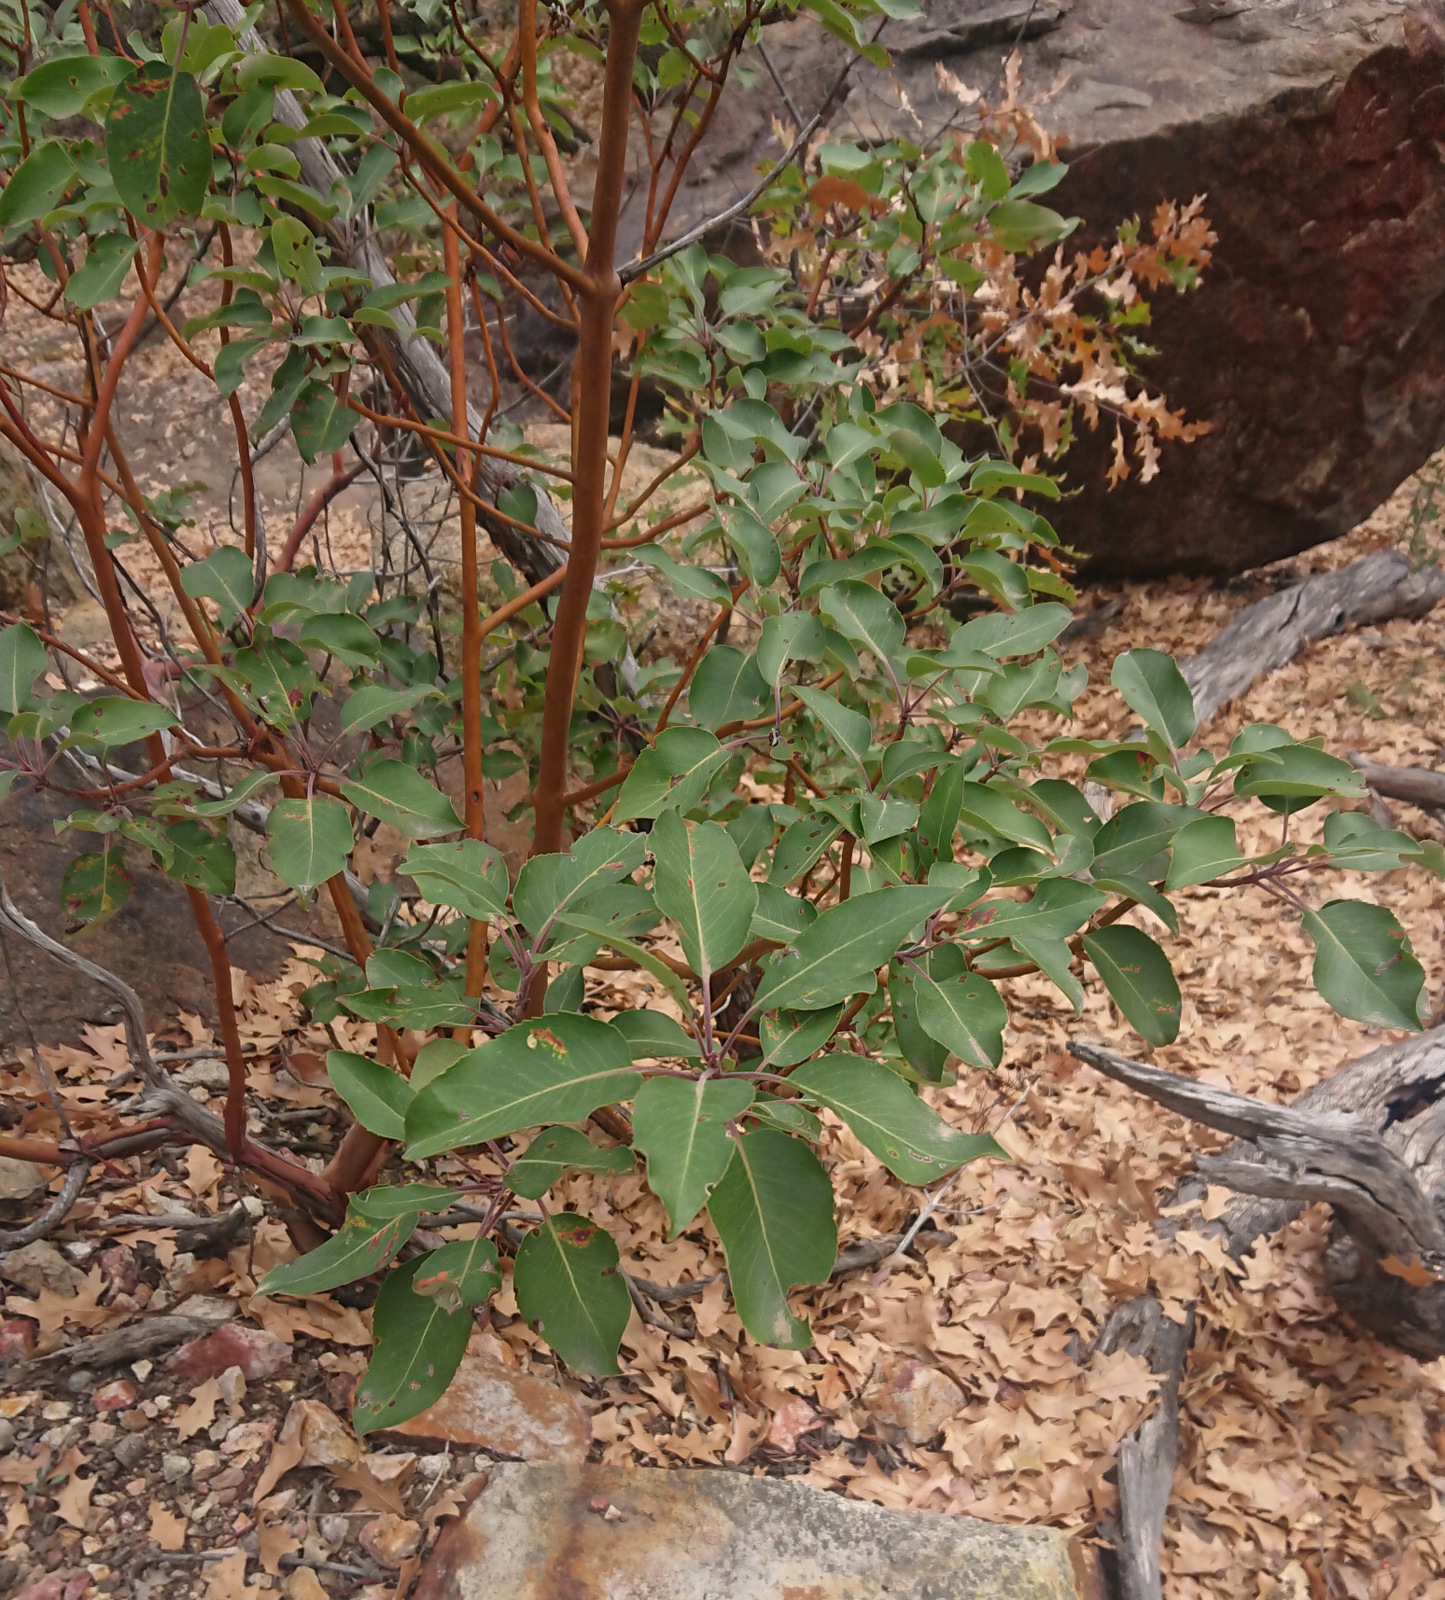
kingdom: Plantae
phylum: Tracheophyta
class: Magnoliopsida
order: Ericales
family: Ericaceae
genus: Arbutus
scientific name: Arbutus xalapensis
